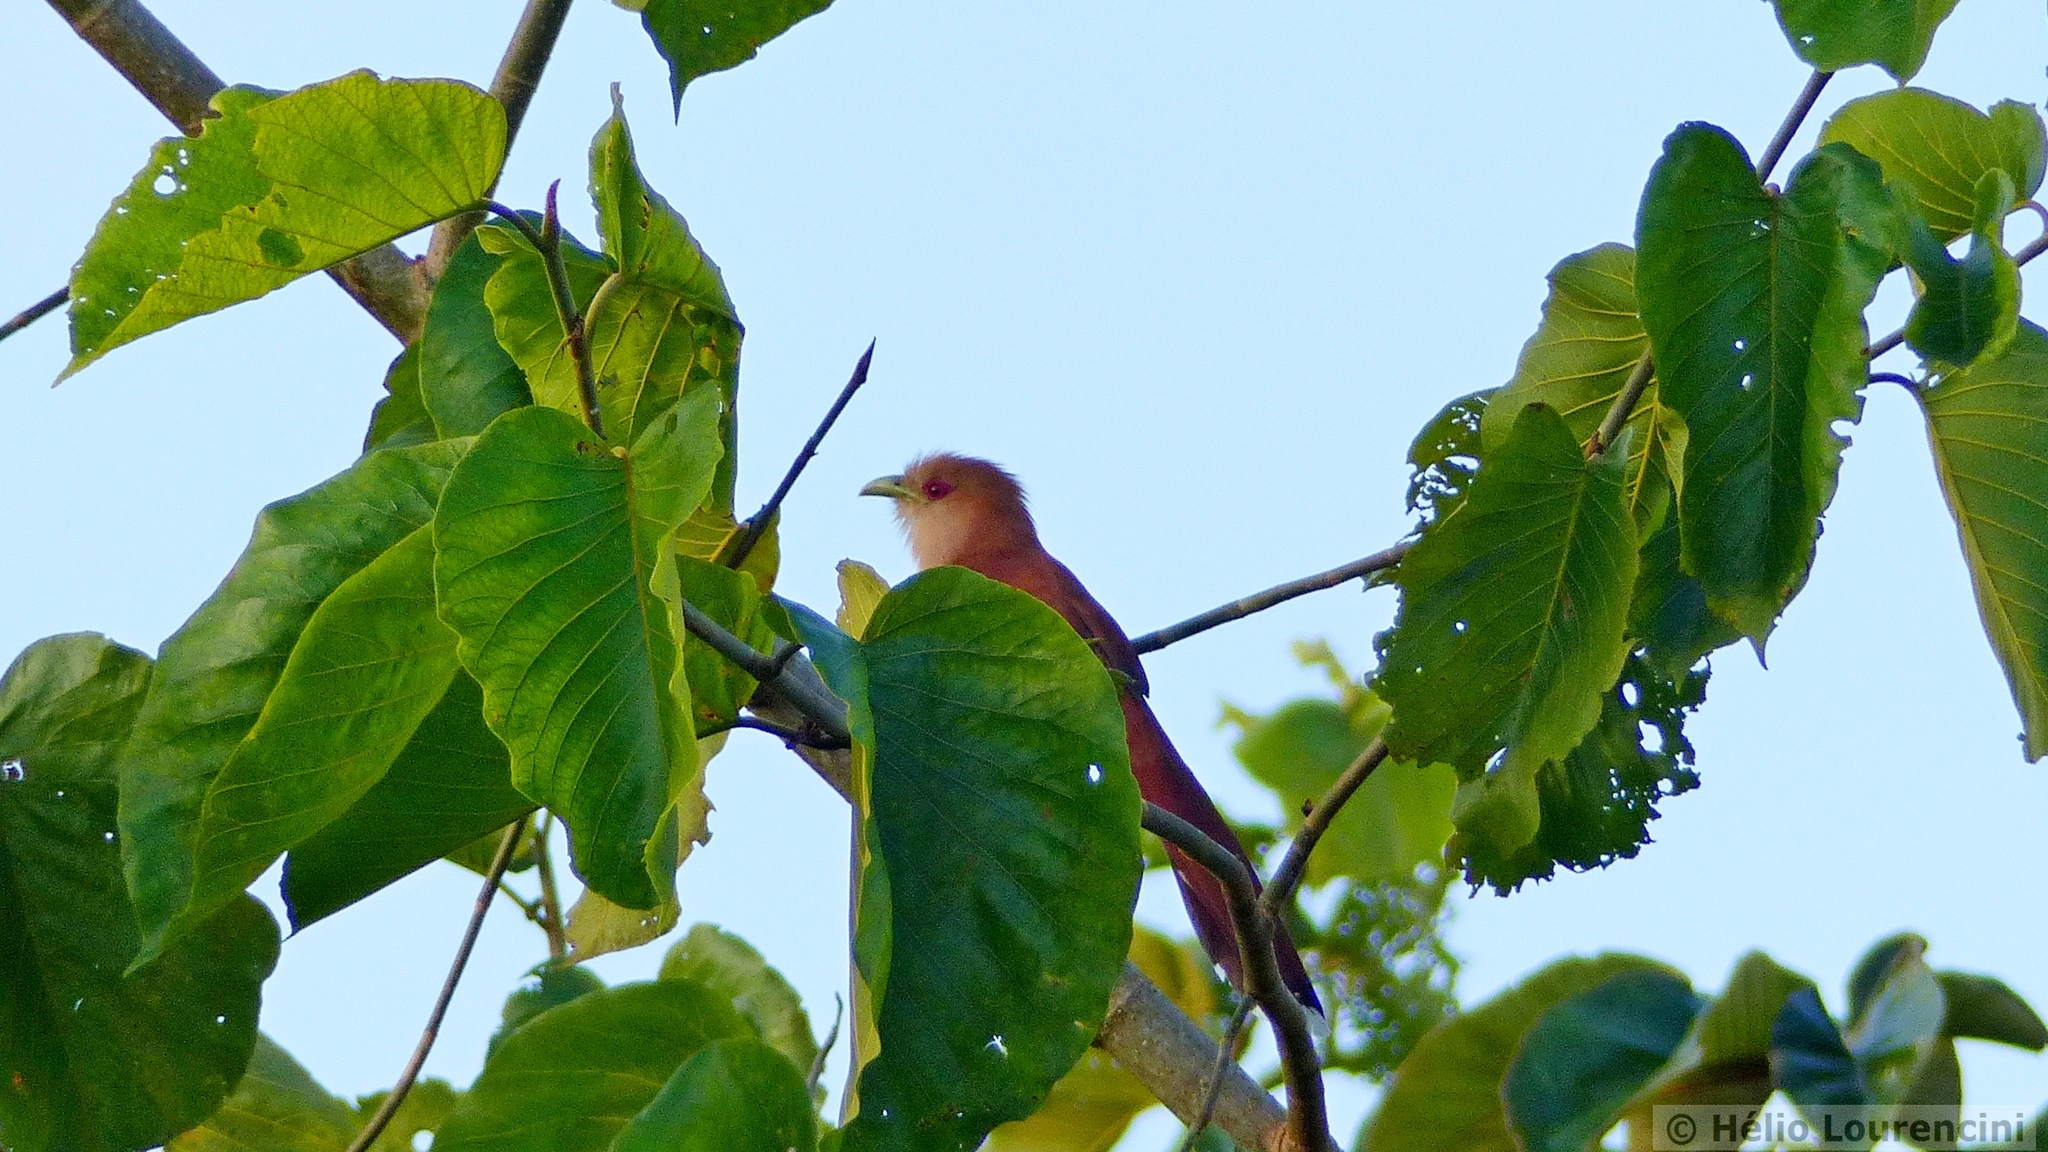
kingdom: Animalia
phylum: Chordata
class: Aves
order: Cuculiformes
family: Cuculidae
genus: Piaya
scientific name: Piaya cayana
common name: Squirrel cuckoo
